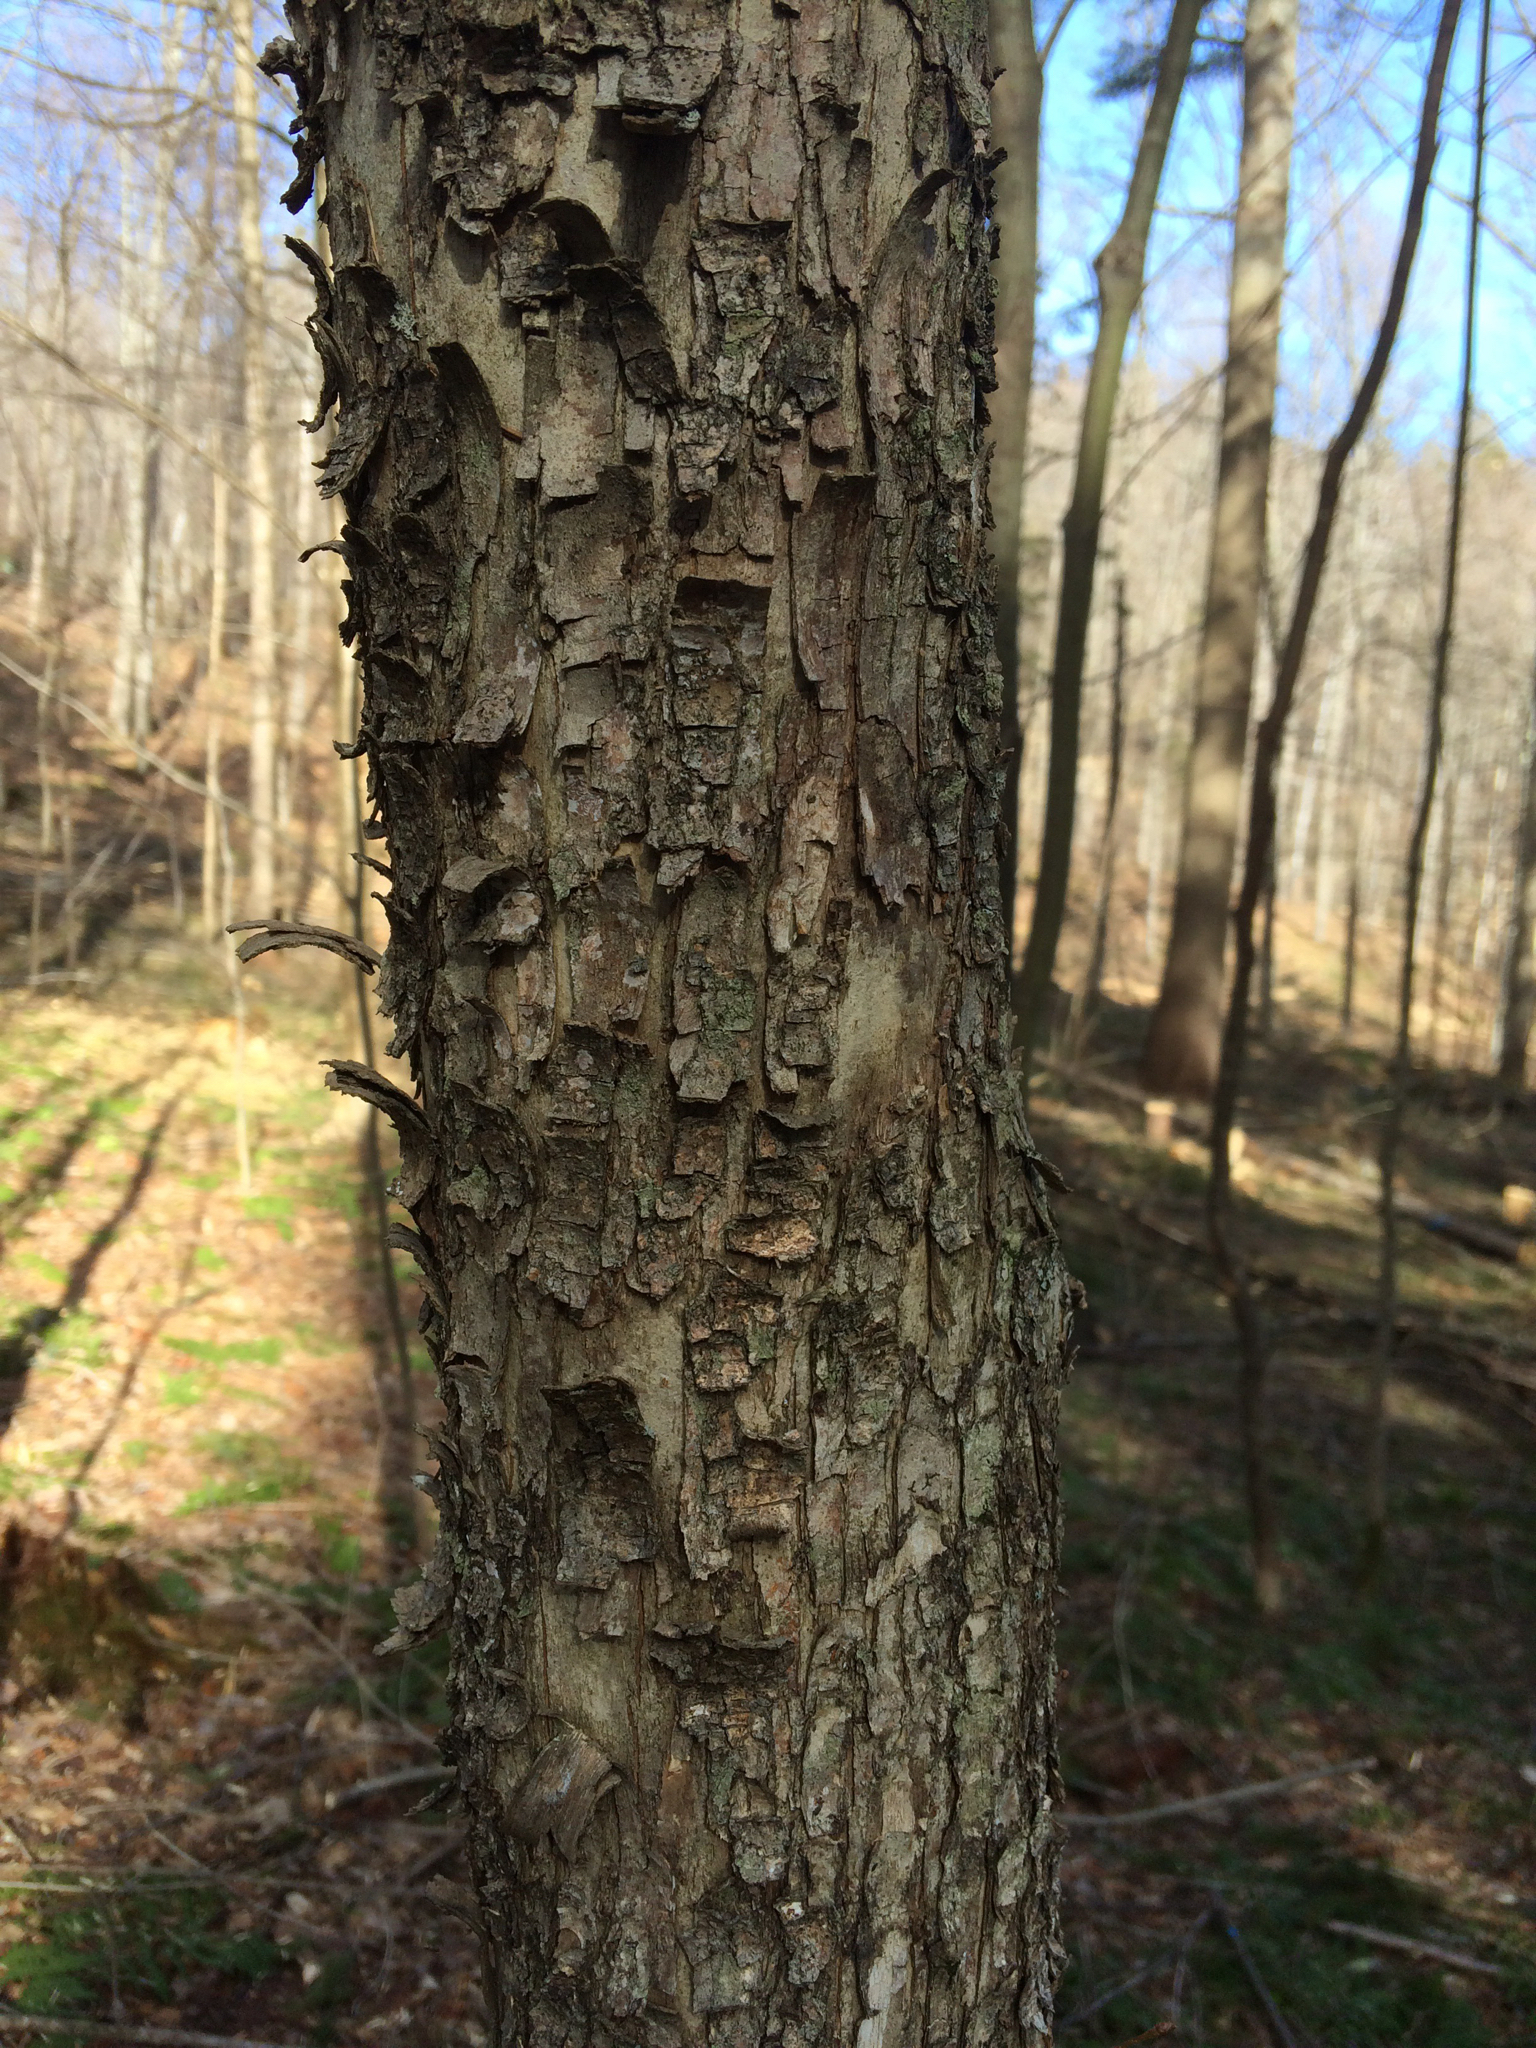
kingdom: Plantae
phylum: Tracheophyta
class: Magnoliopsida
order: Fagales
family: Betulaceae
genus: Ostrya
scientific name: Ostrya virginiana
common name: Ironwood
